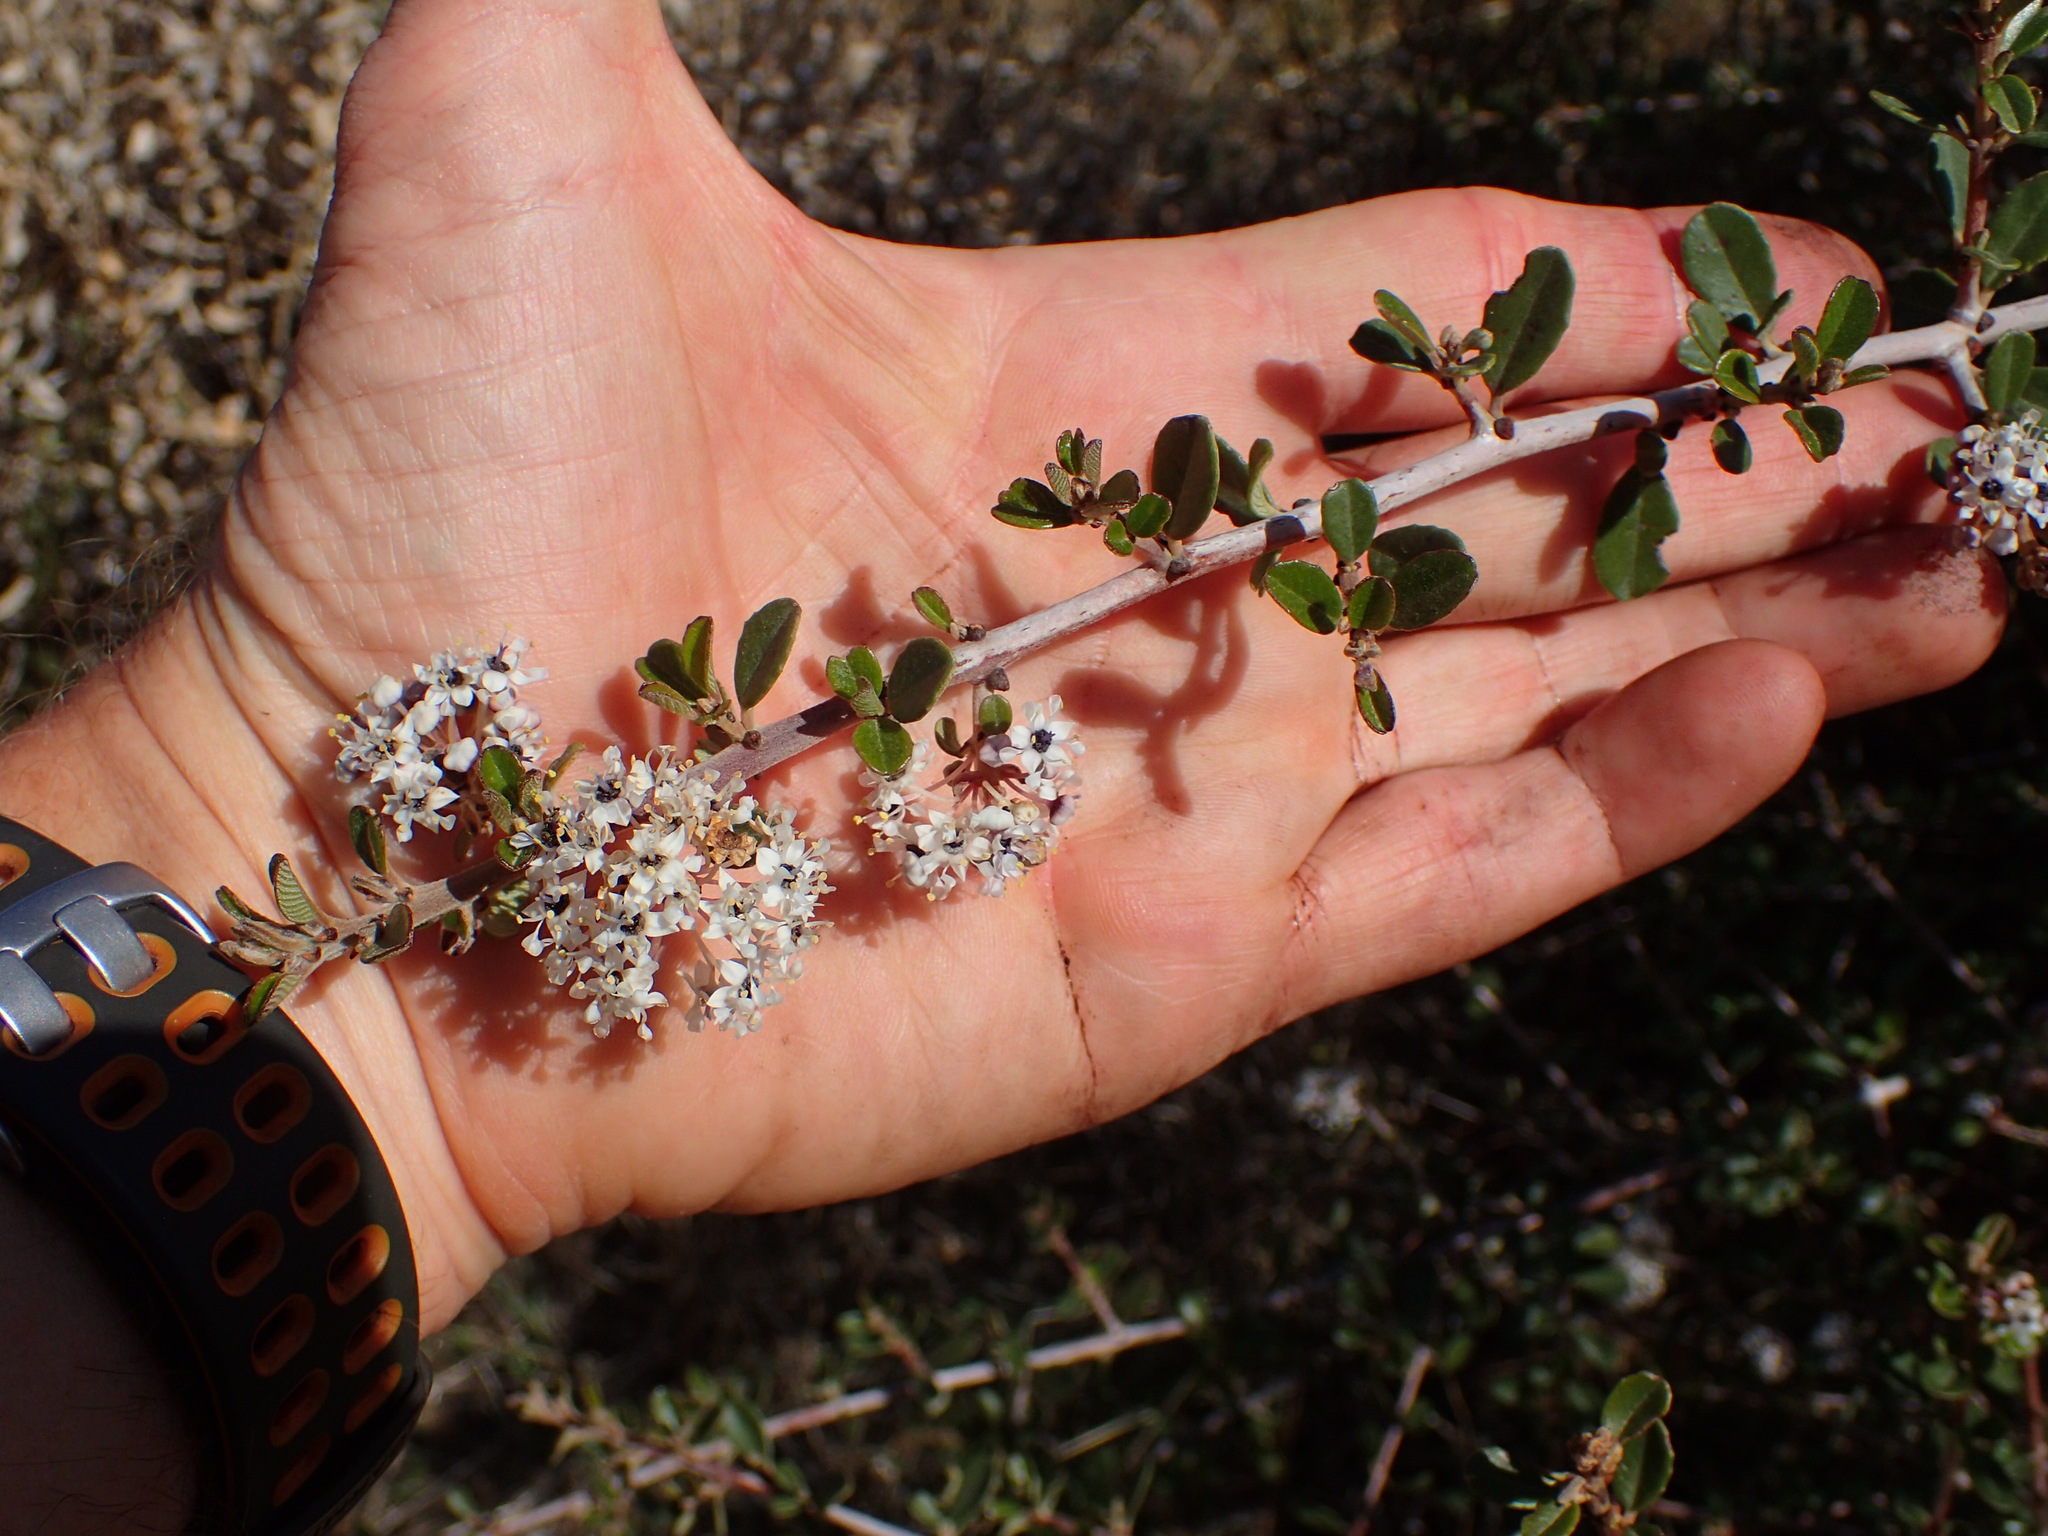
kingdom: Plantae
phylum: Tracheophyta
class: Magnoliopsida
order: Rosales
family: Rhamnaceae
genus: Ceanothus
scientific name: Ceanothus cuneatus
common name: Cuneate ceanothus
